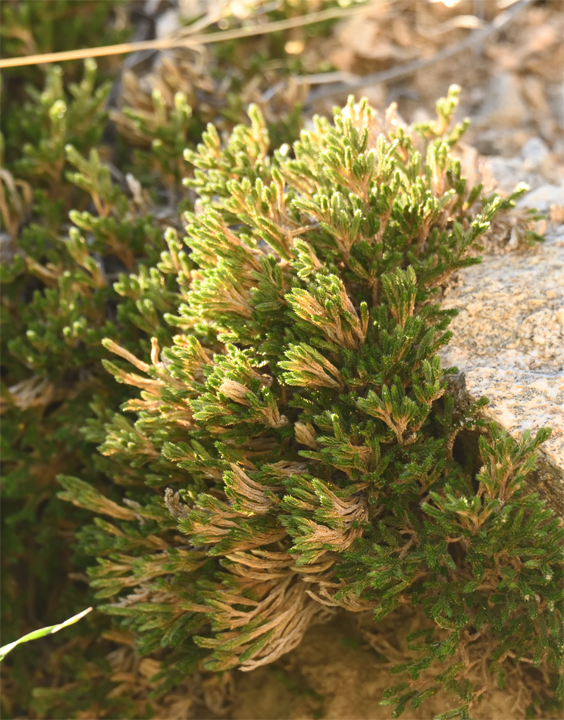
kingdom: Plantae
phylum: Tracheophyta
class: Lycopodiopsida
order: Selaginellales
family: Selaginellaceae
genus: Selaginella
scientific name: Selaginella bigelovii
